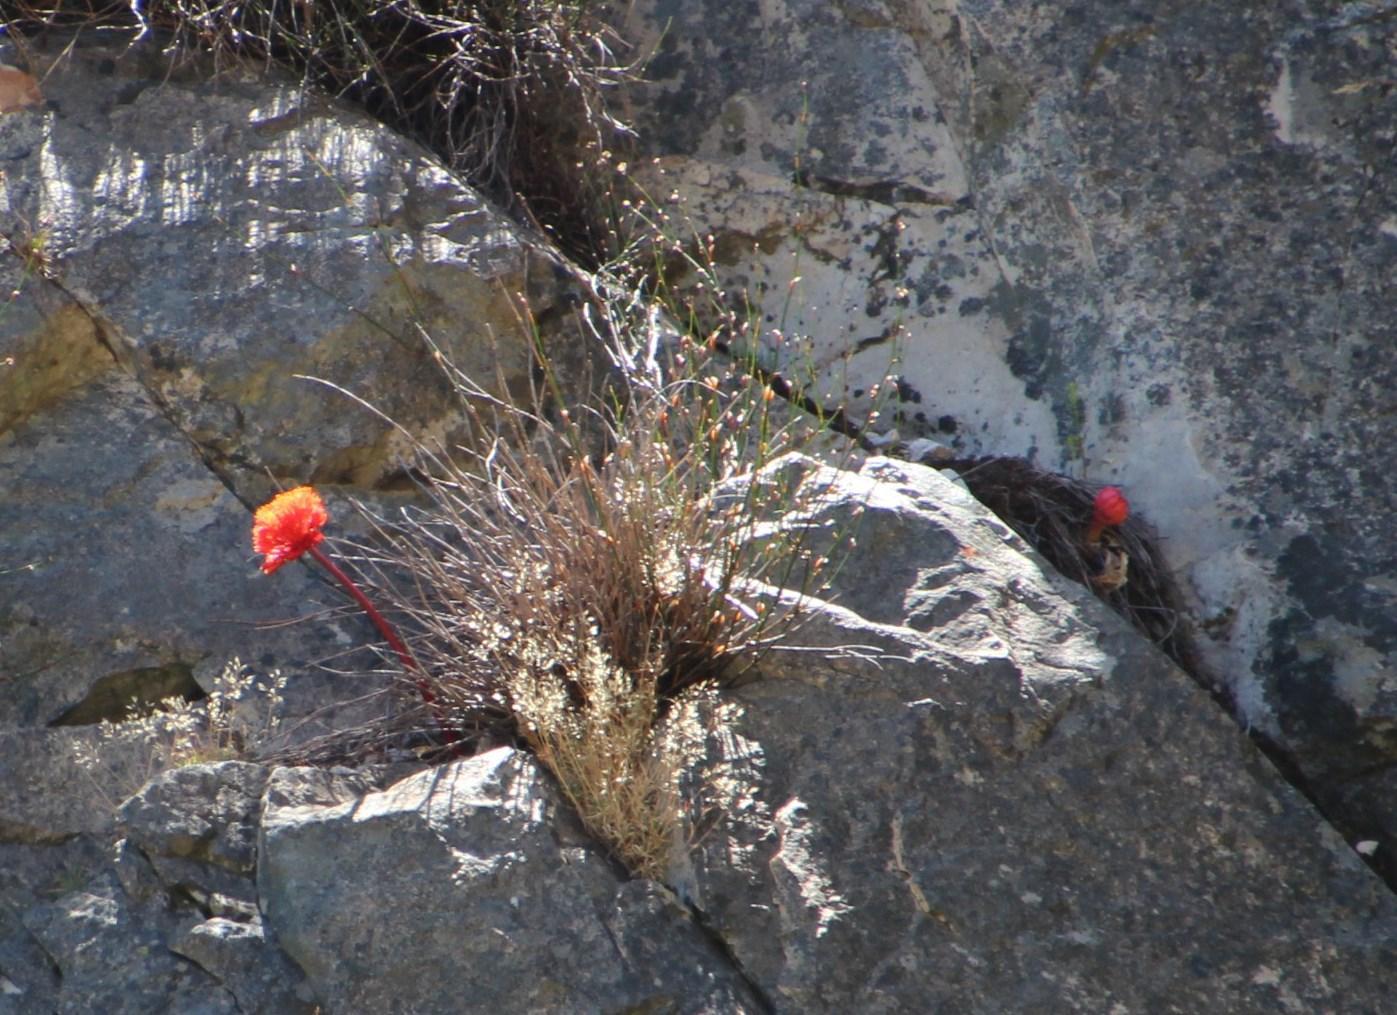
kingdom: Plantae
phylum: Tracheophyta
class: Liliopsida
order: Asparagales
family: Amaryllidaceae
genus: Haemanthus
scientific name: Haemanthus sanguineus
